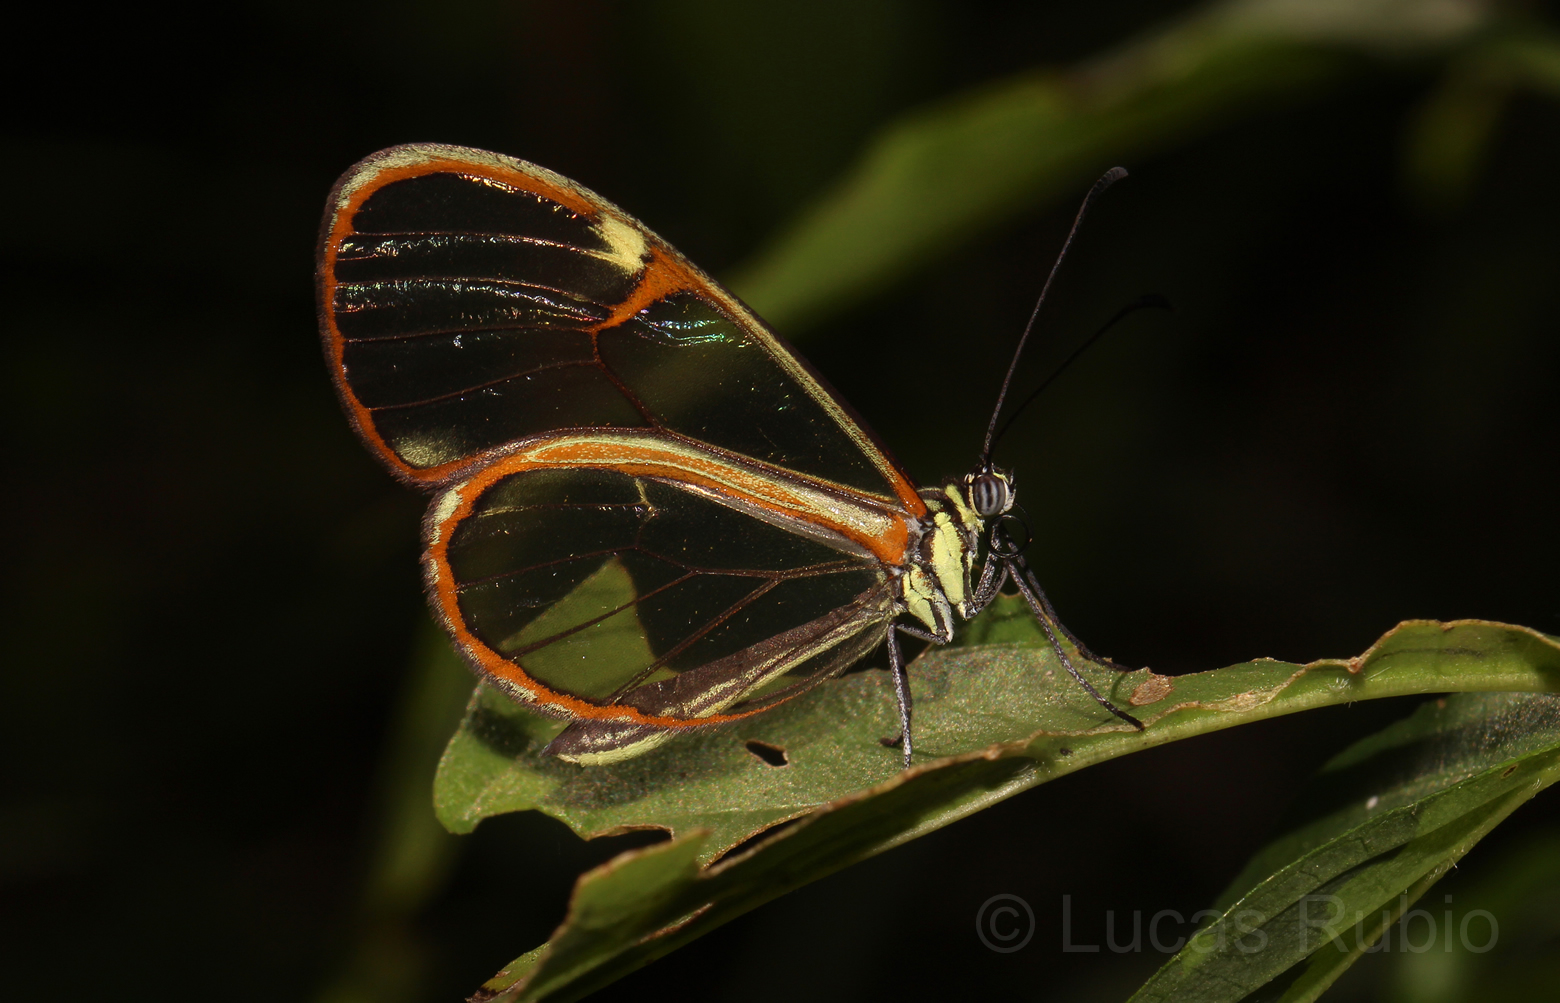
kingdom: Animalia
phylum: Arthropoda
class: Insecta
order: Lepidoptera
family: Nymphalidae
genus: Episcada
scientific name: Episcada hymenaea
